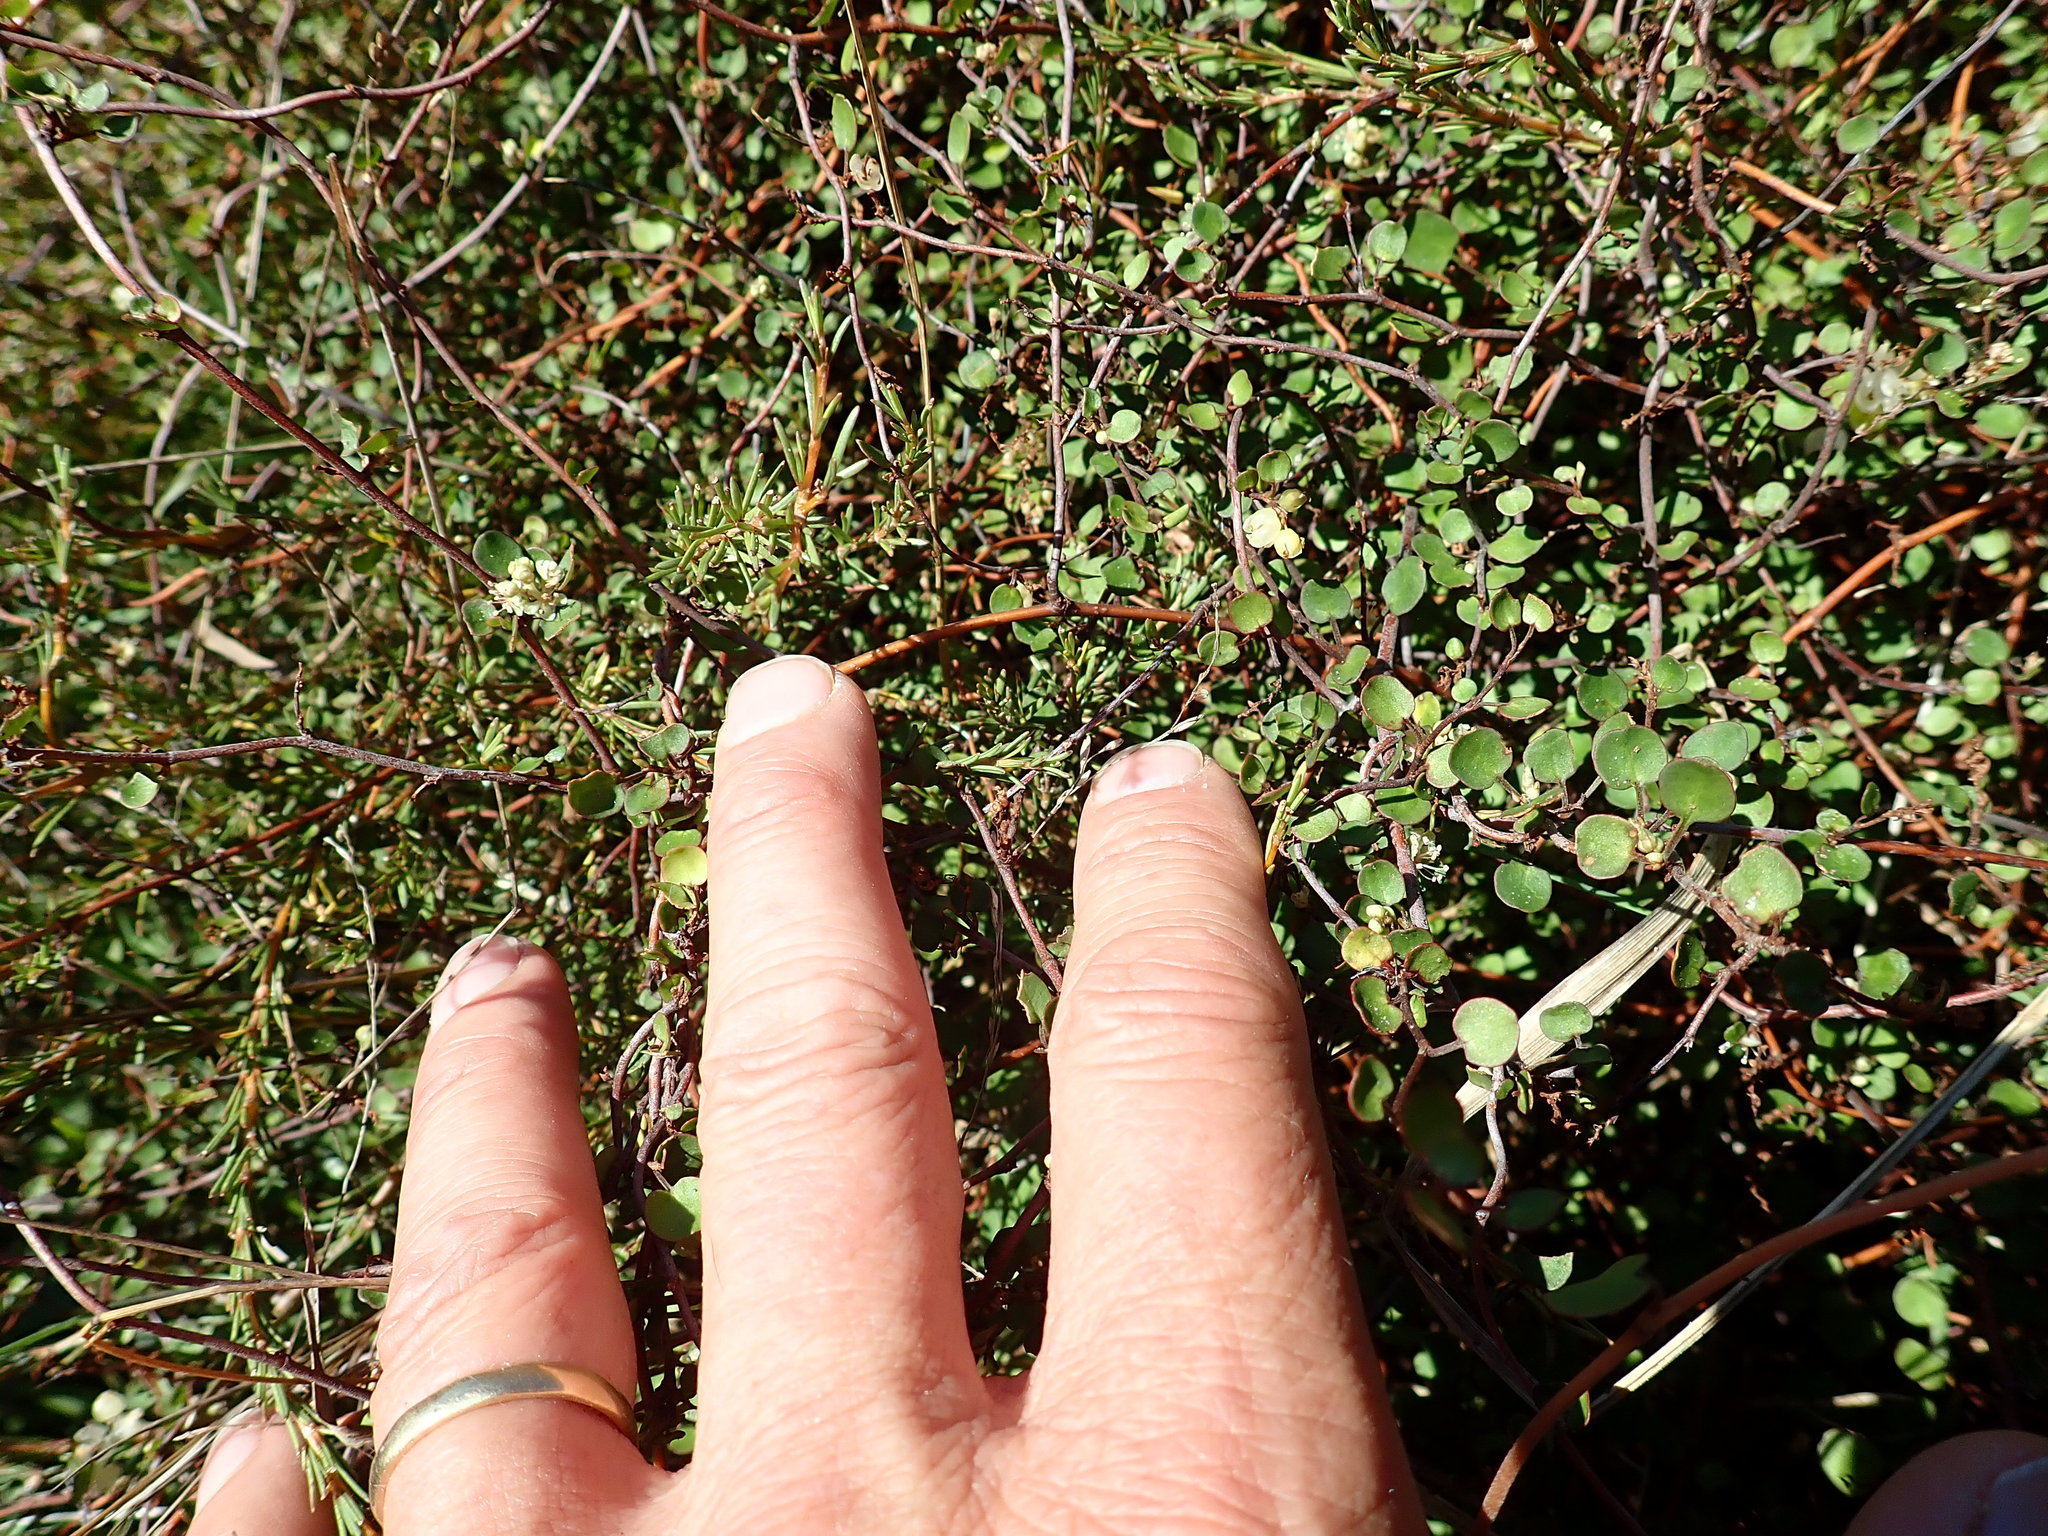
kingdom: Plantae
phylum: Tracheophyta
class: Magnoliopsida
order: Caryophyllales
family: Polygonaceae
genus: Muehlenbeckia
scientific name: Muehlenbeckia complexa
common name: Wireplant
